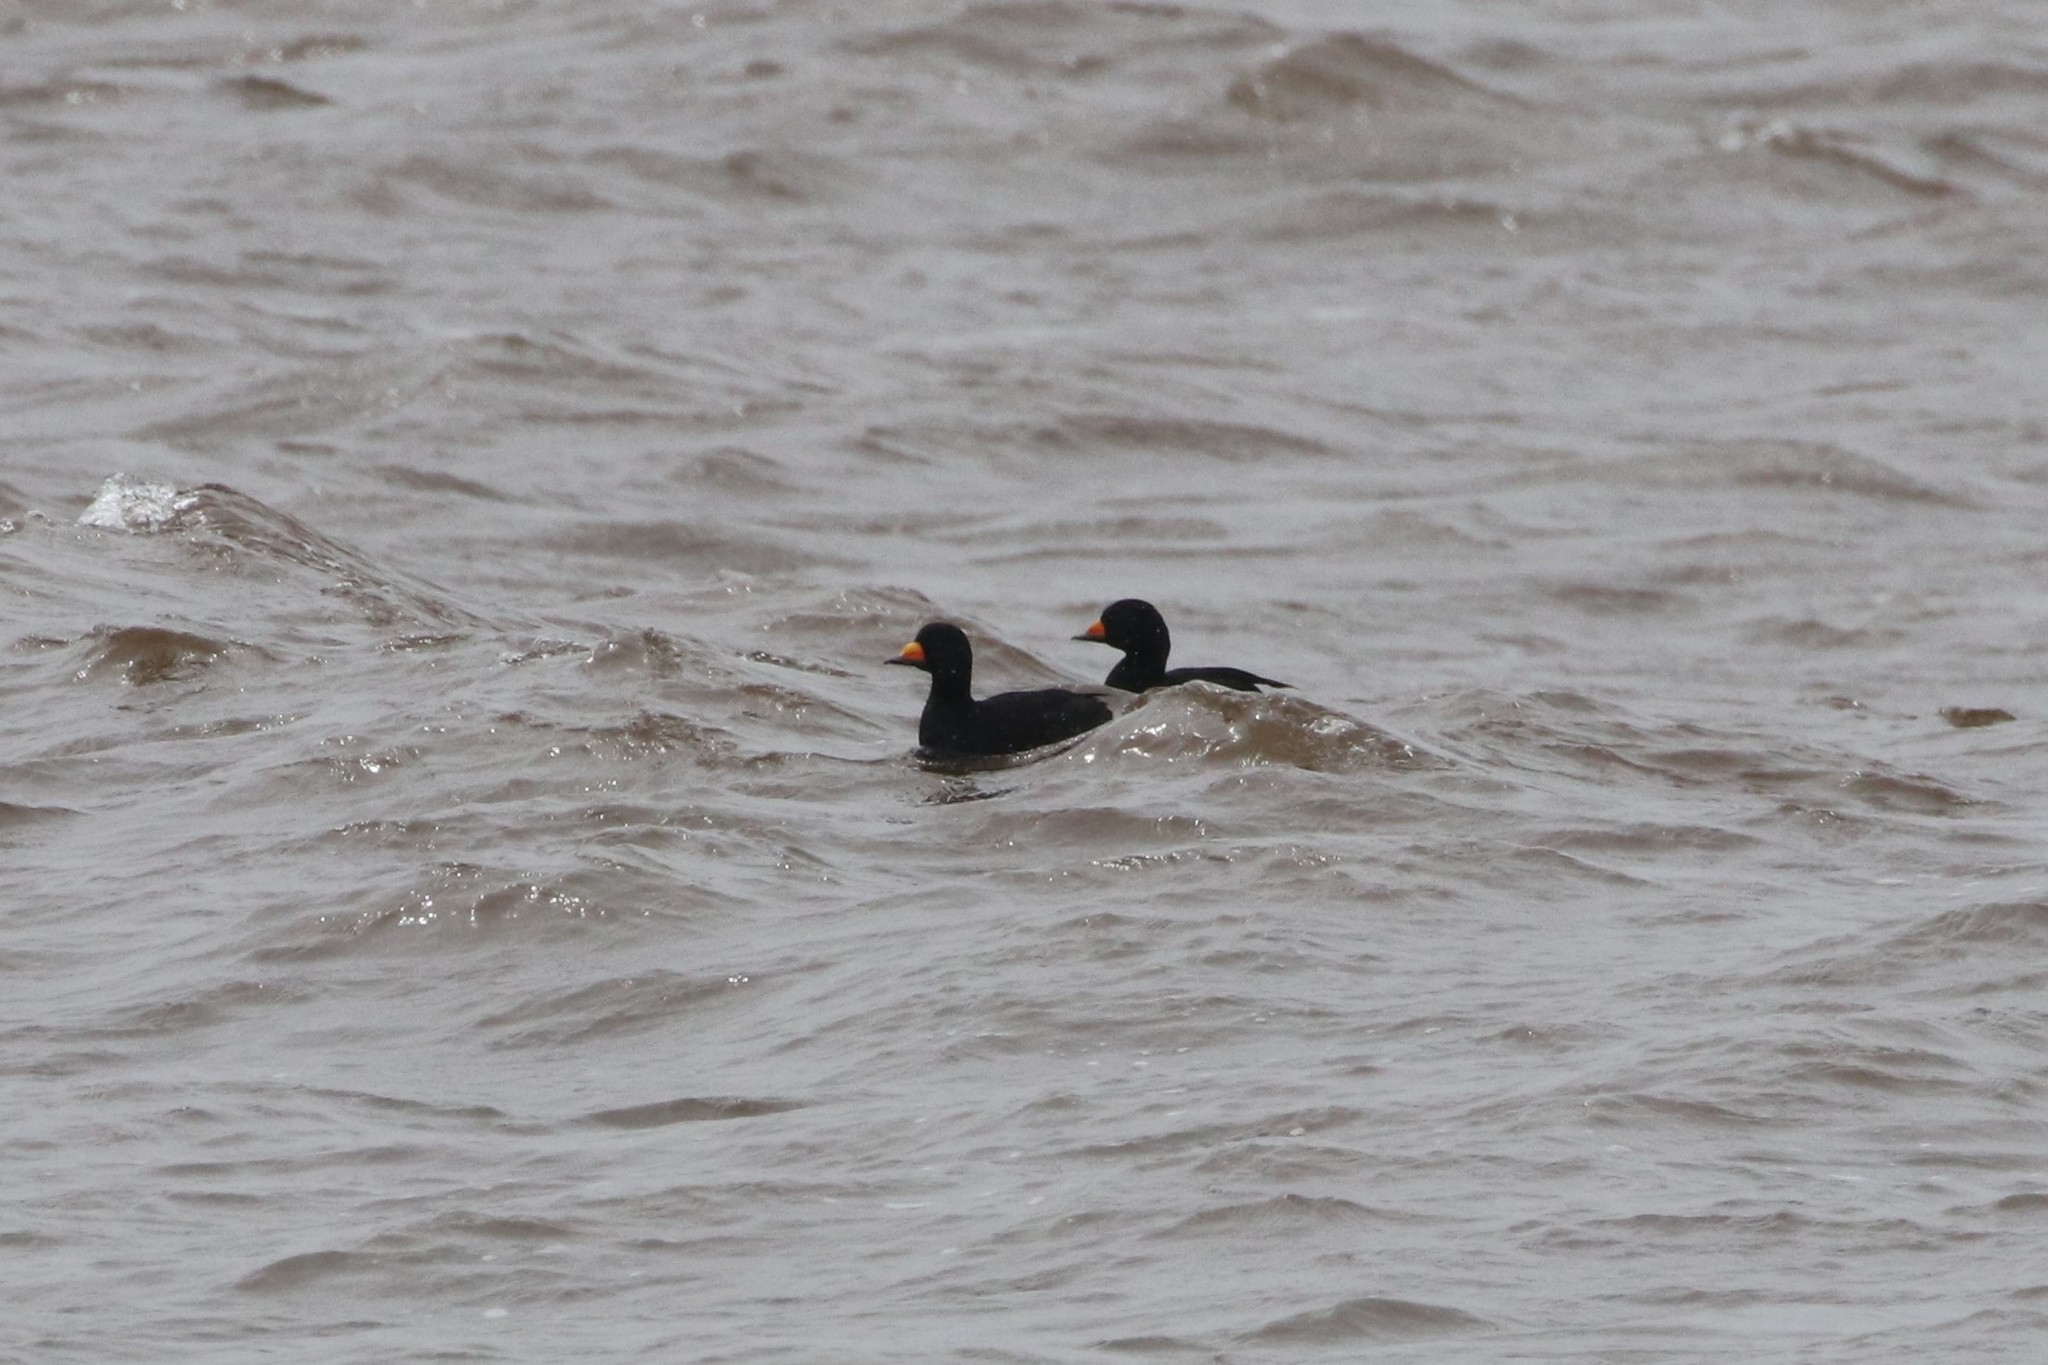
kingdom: Animalia
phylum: Chordata
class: Aves
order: Anseriformes
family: Anatidae
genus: Melanitta
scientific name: Melanitta americana
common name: Black scoter
